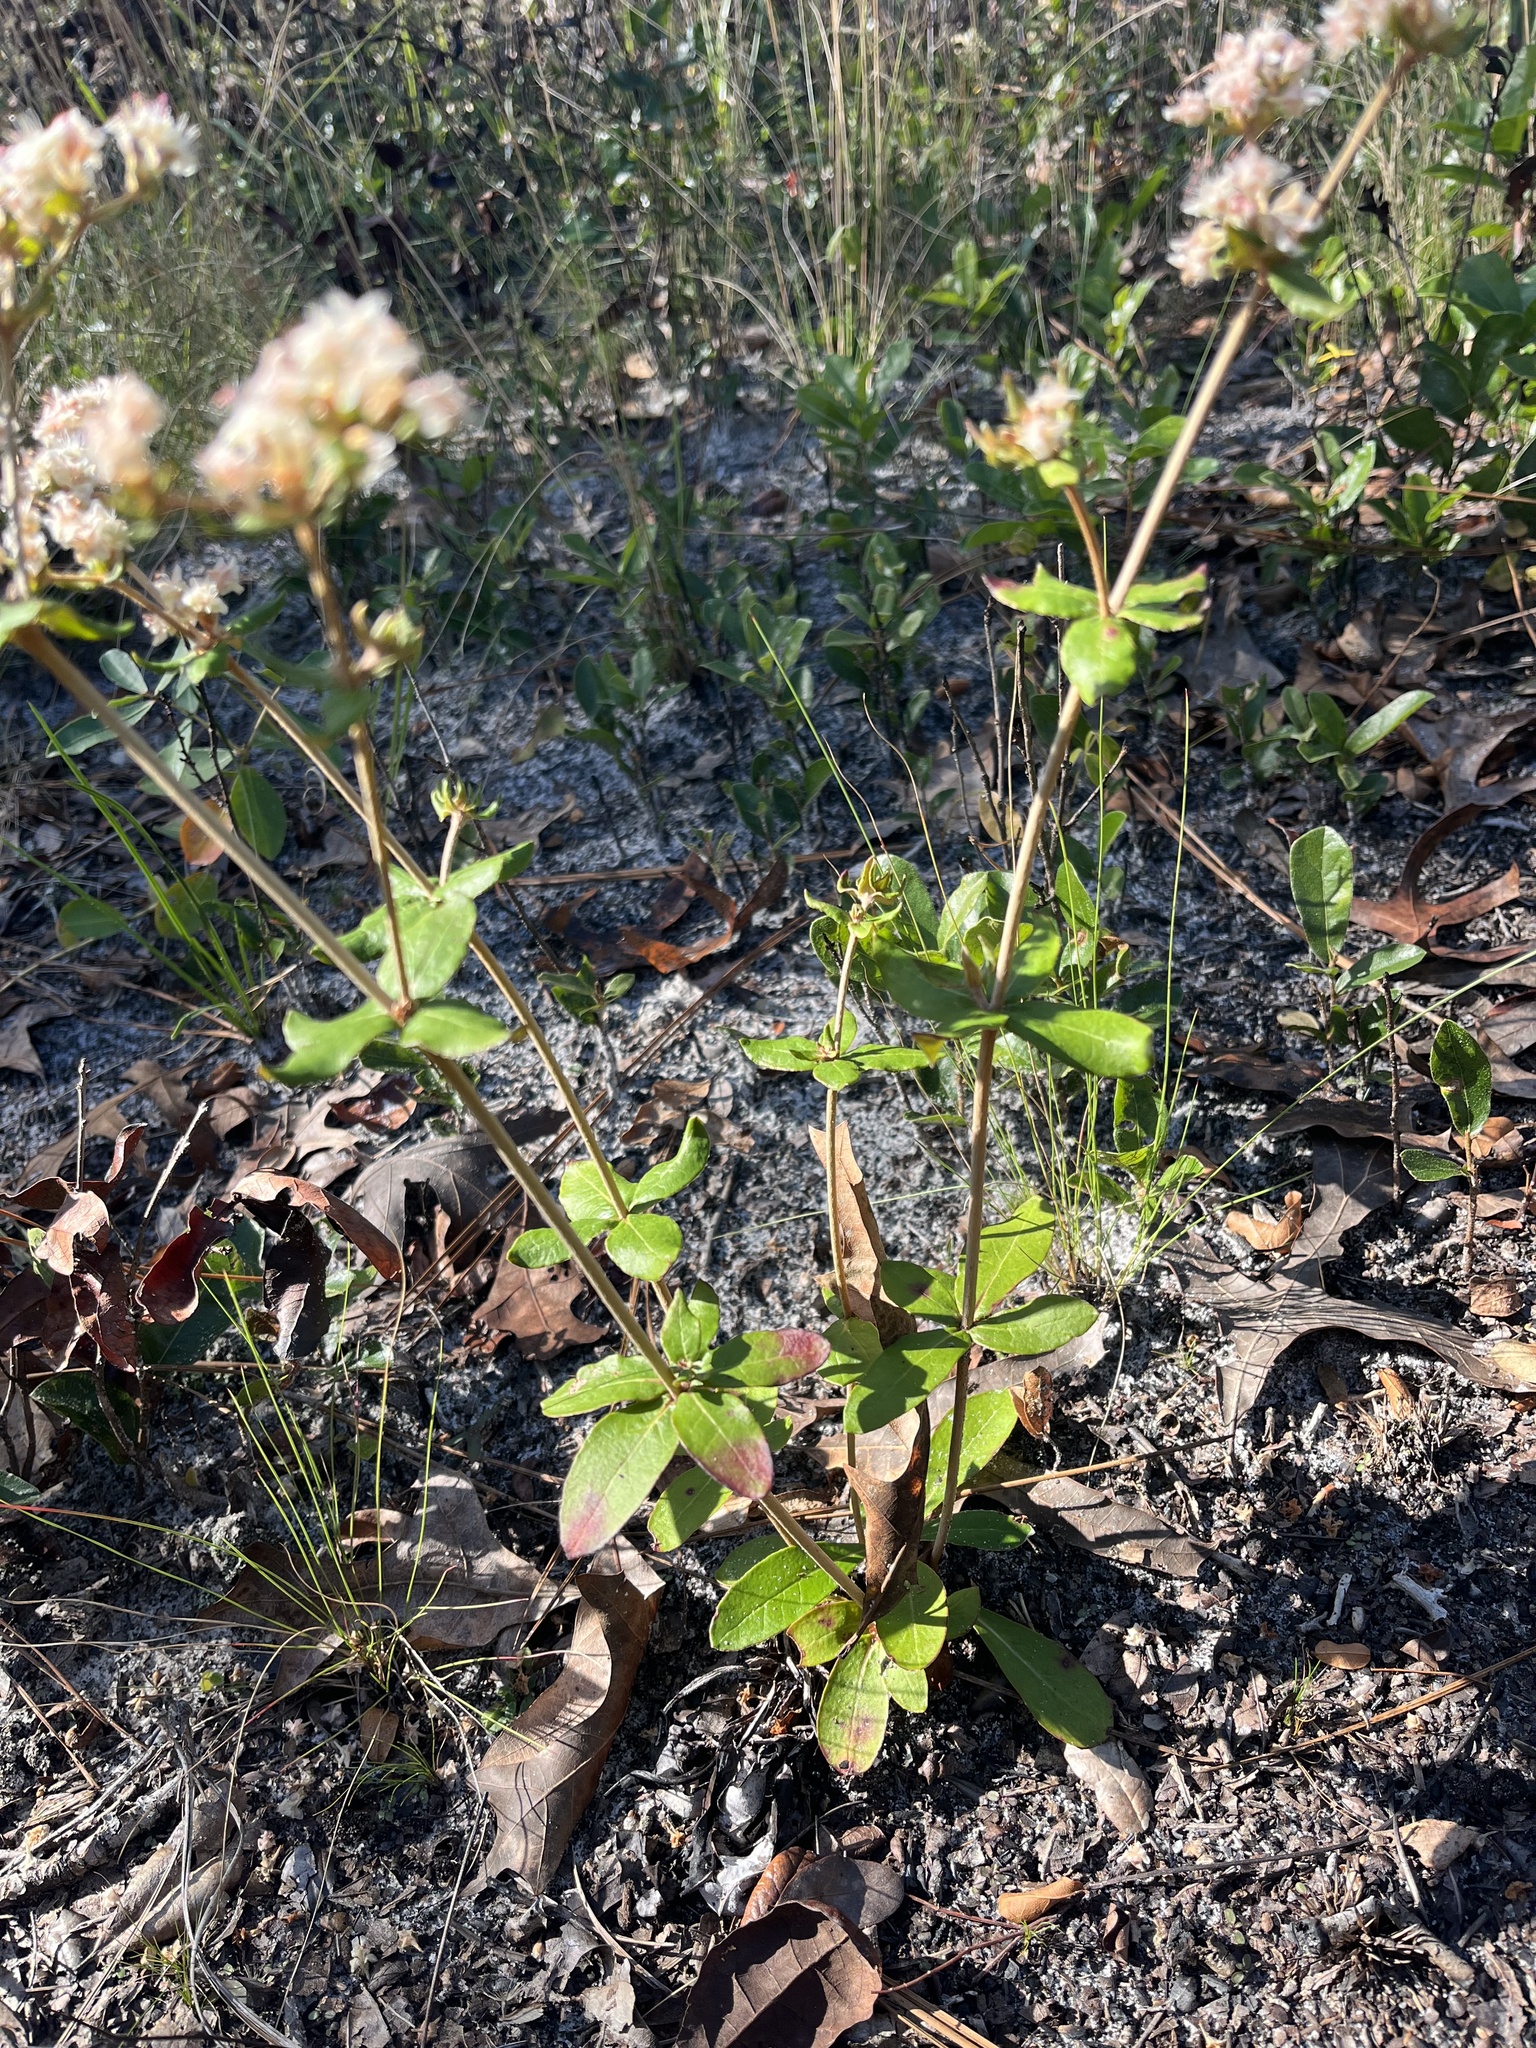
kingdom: Plantae
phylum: Tracheophyta
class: Magnoliopsida
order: Caryophyllales
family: Polygonaceae
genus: Eriogonum
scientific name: Eriogonum tomentosum
